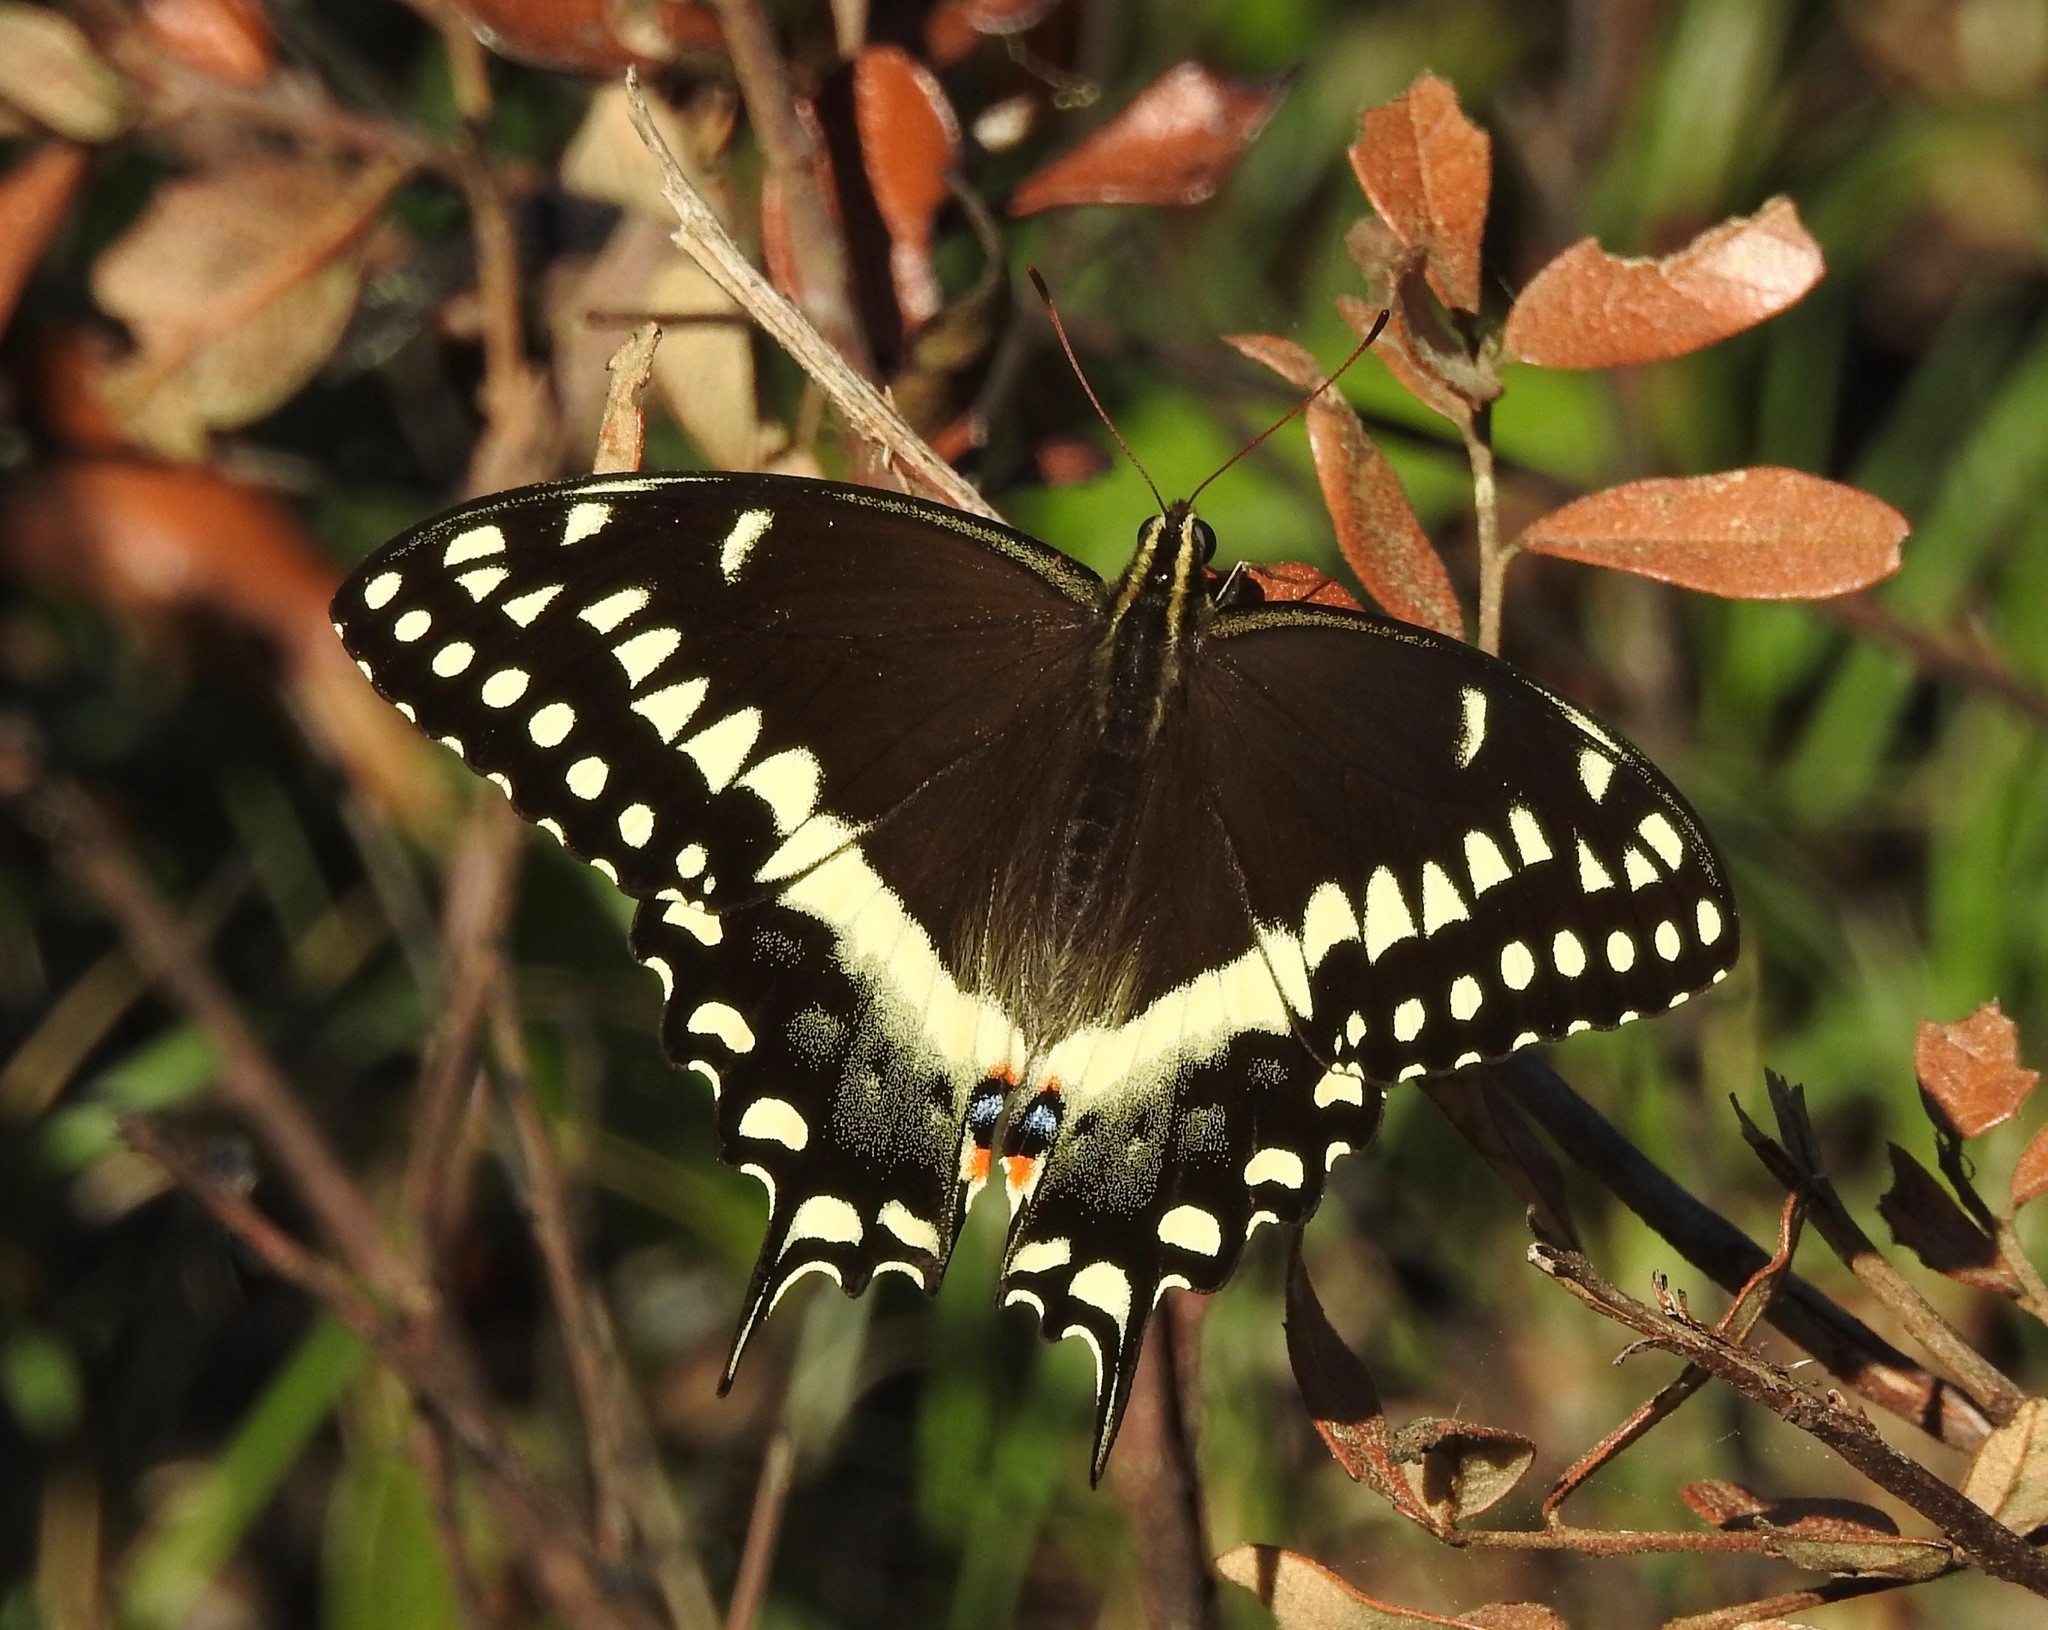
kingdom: Animalia
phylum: Arthropoda
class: Insecta
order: Lepidoptera
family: Papilionidae
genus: Papilio
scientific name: Papilio palamedes
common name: Palamedes swallowtail
